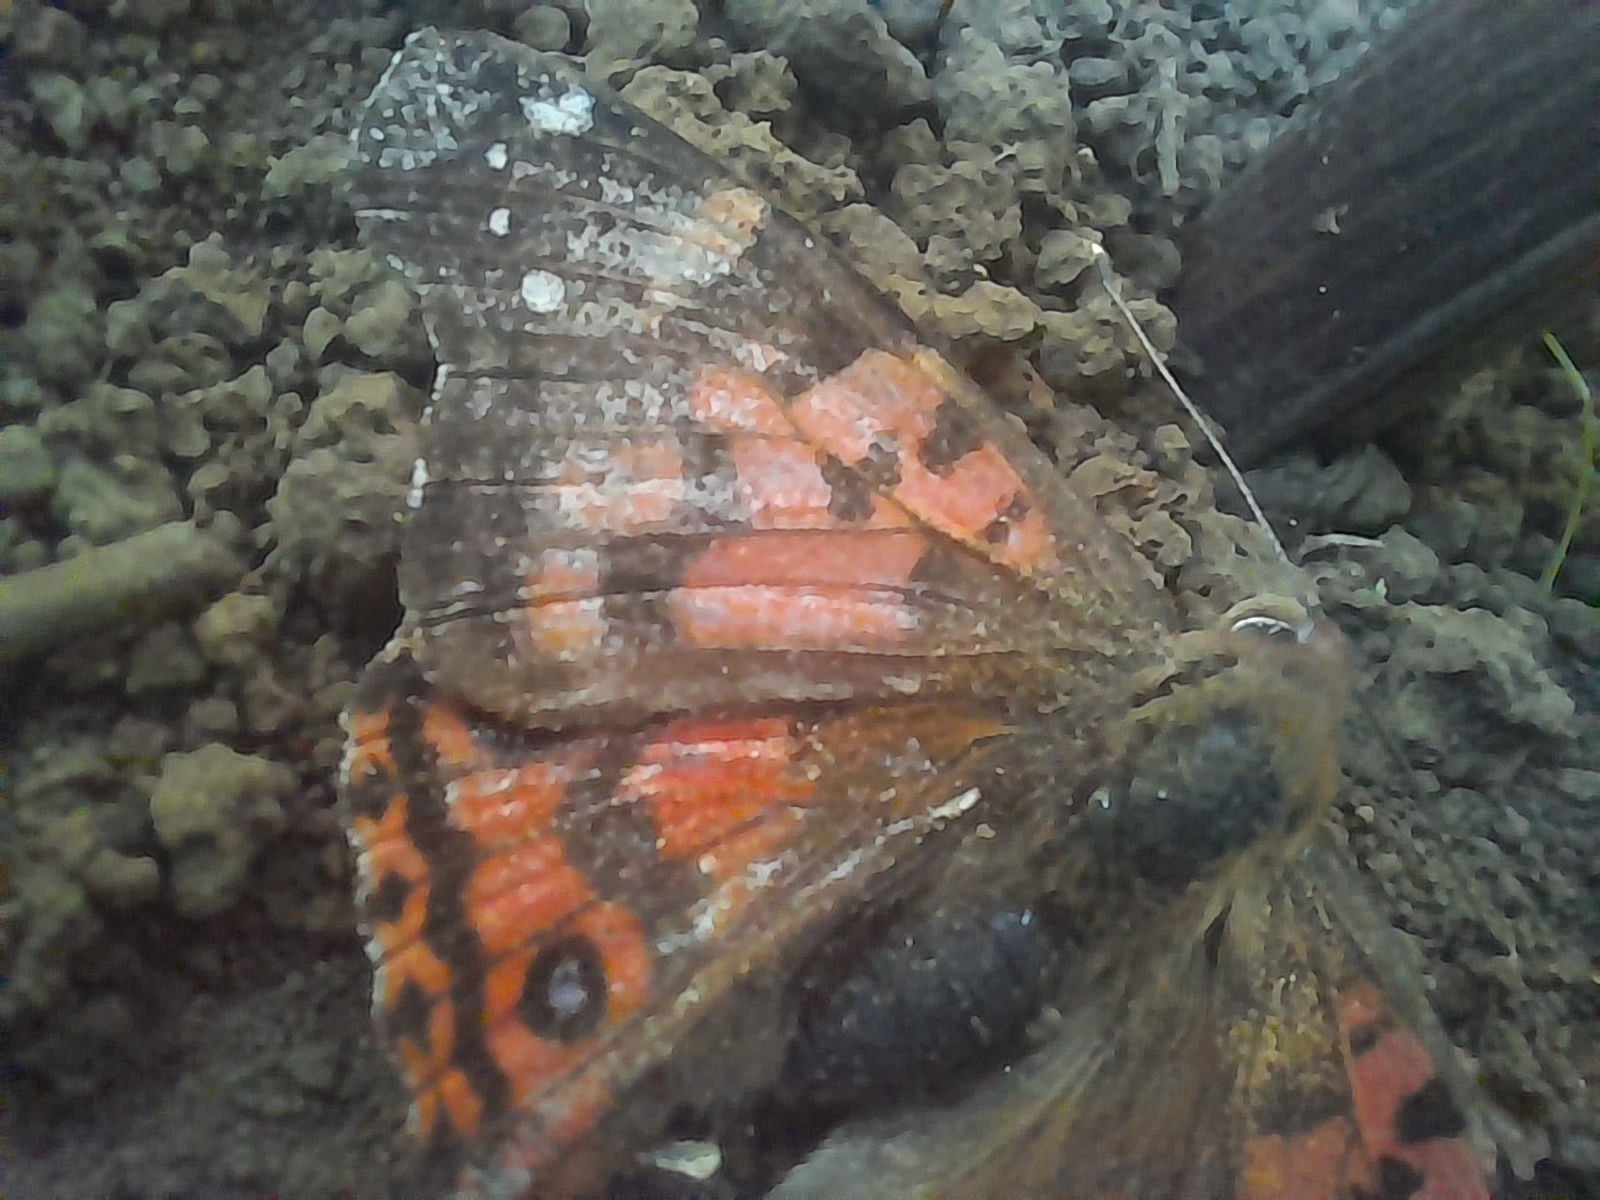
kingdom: Animalia
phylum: Arthropoda
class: Insecta
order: Lepidoptera
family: Nymphalidae
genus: Vanessa
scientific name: Vanessa terpsichore
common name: Chilean lady
